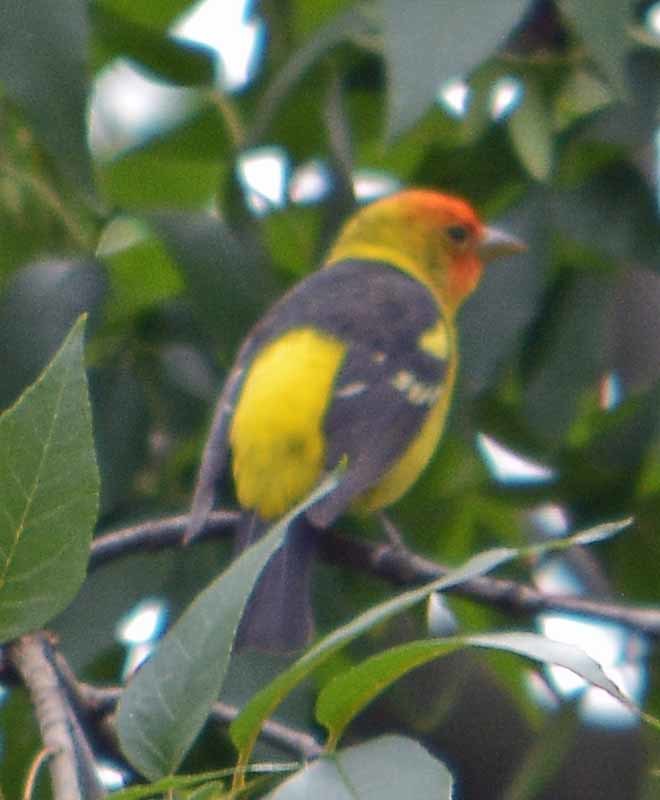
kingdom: Animalia
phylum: Chordata
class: Aves
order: Passeriformes
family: Cardinalidae
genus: Piranga
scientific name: Piranga ludoviciana
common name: Western tanager
